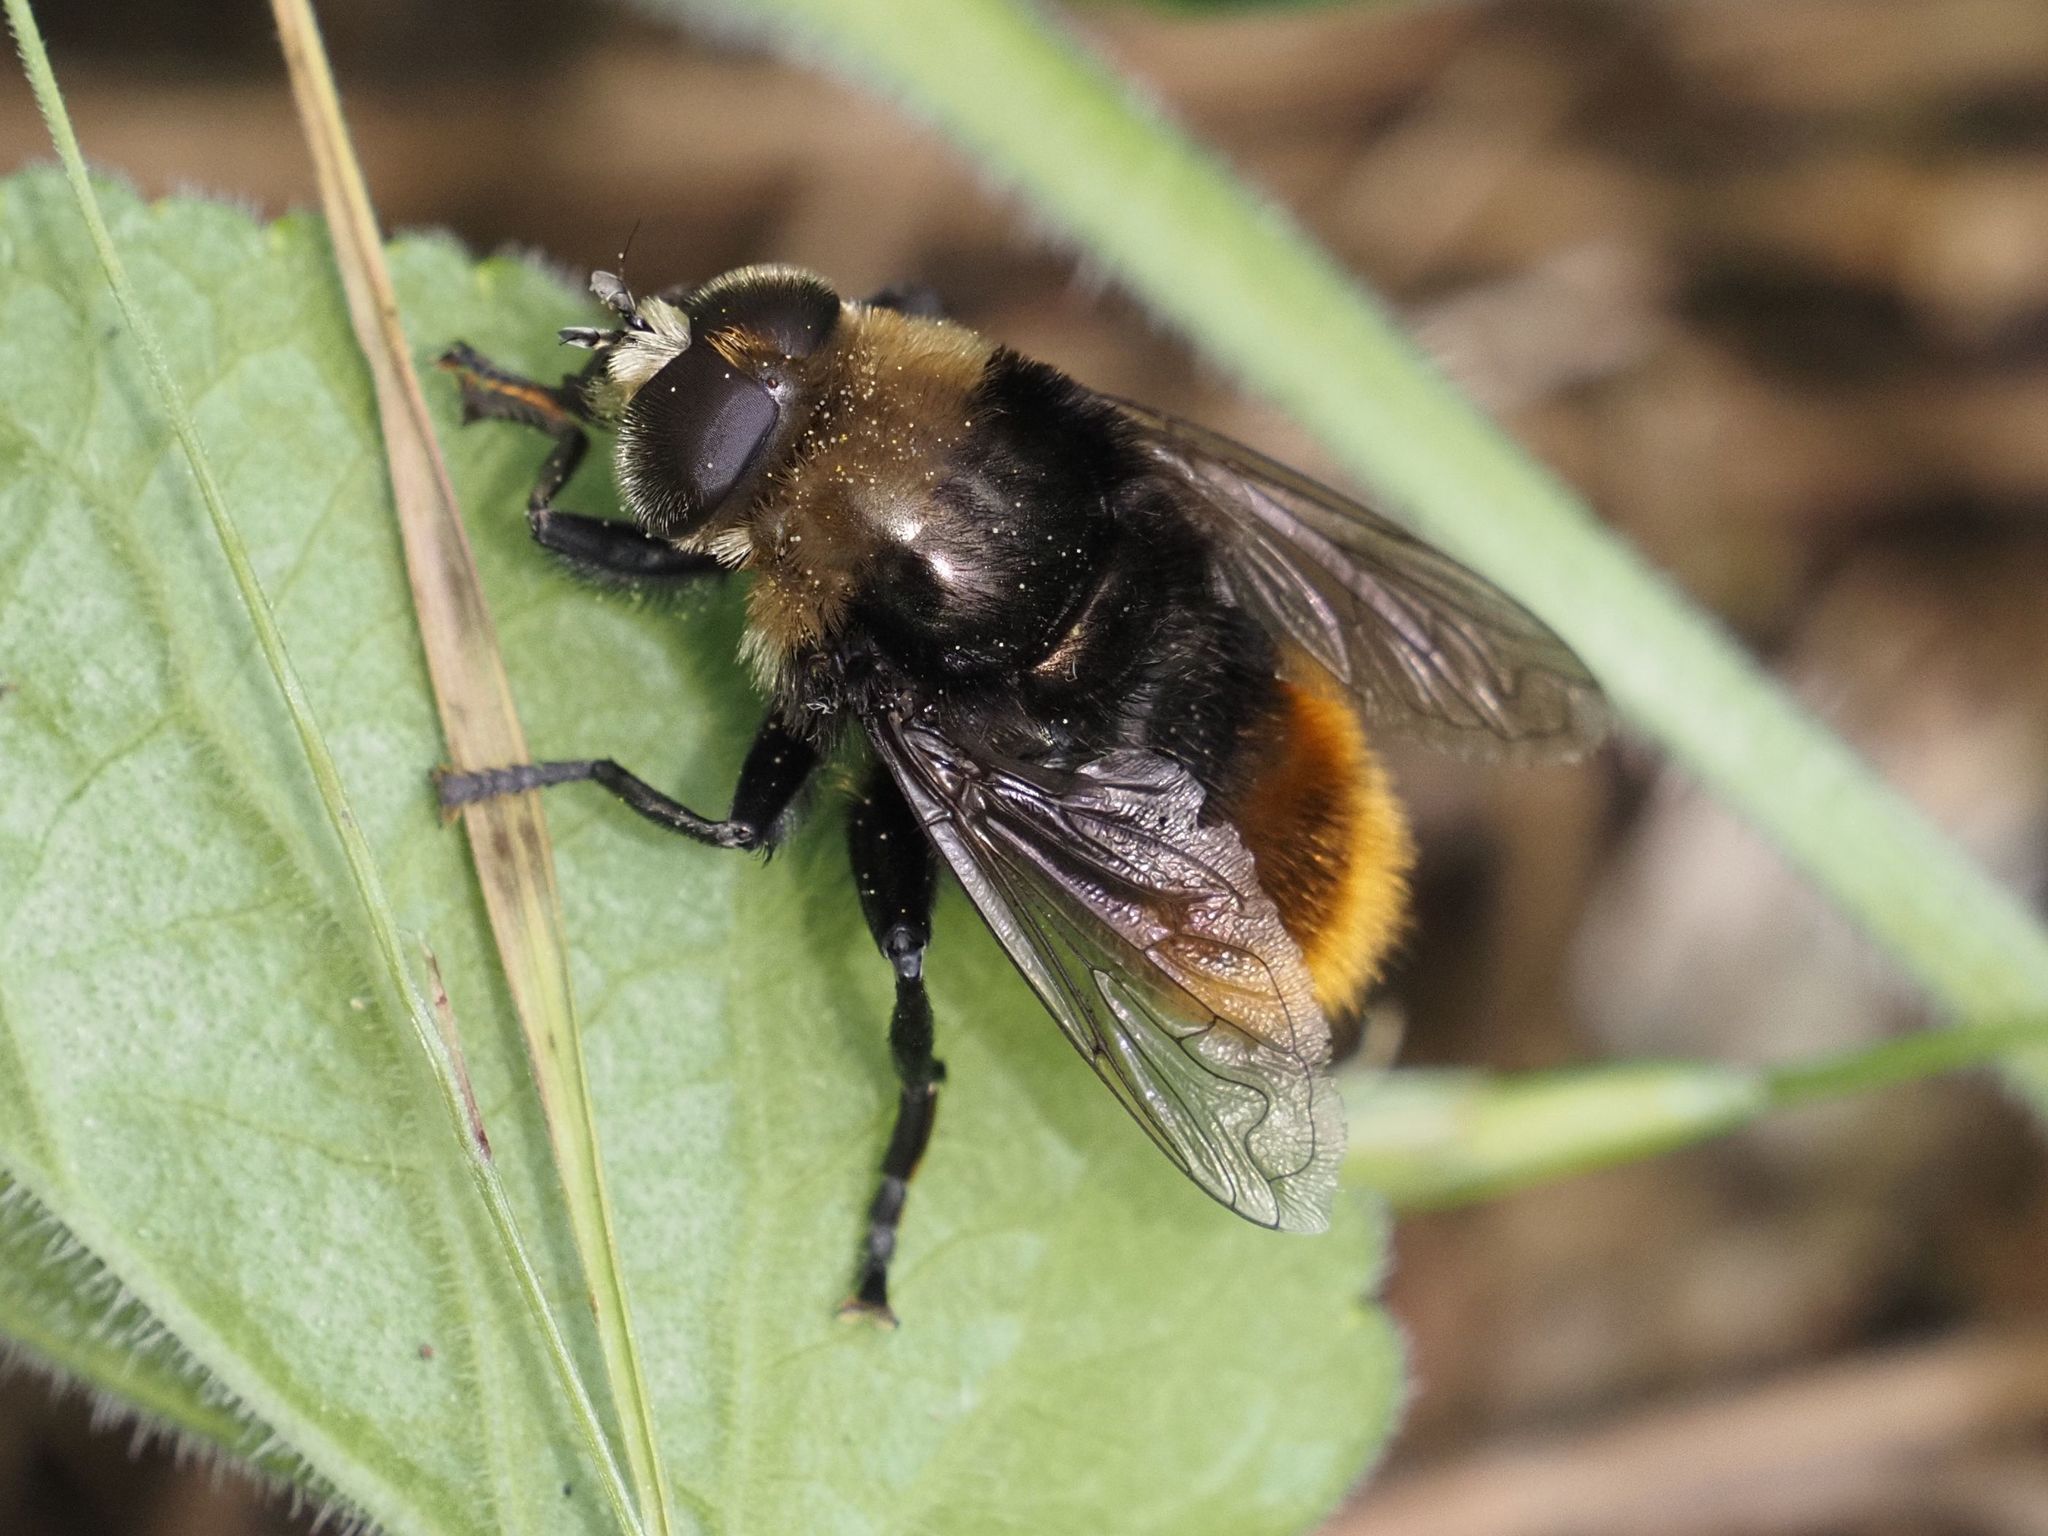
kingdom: Animalia
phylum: Arthropoda
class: Insecta
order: Diptera
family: Syrphidae
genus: Merodon
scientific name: Merodon equestris
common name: Greater bulb-fly
